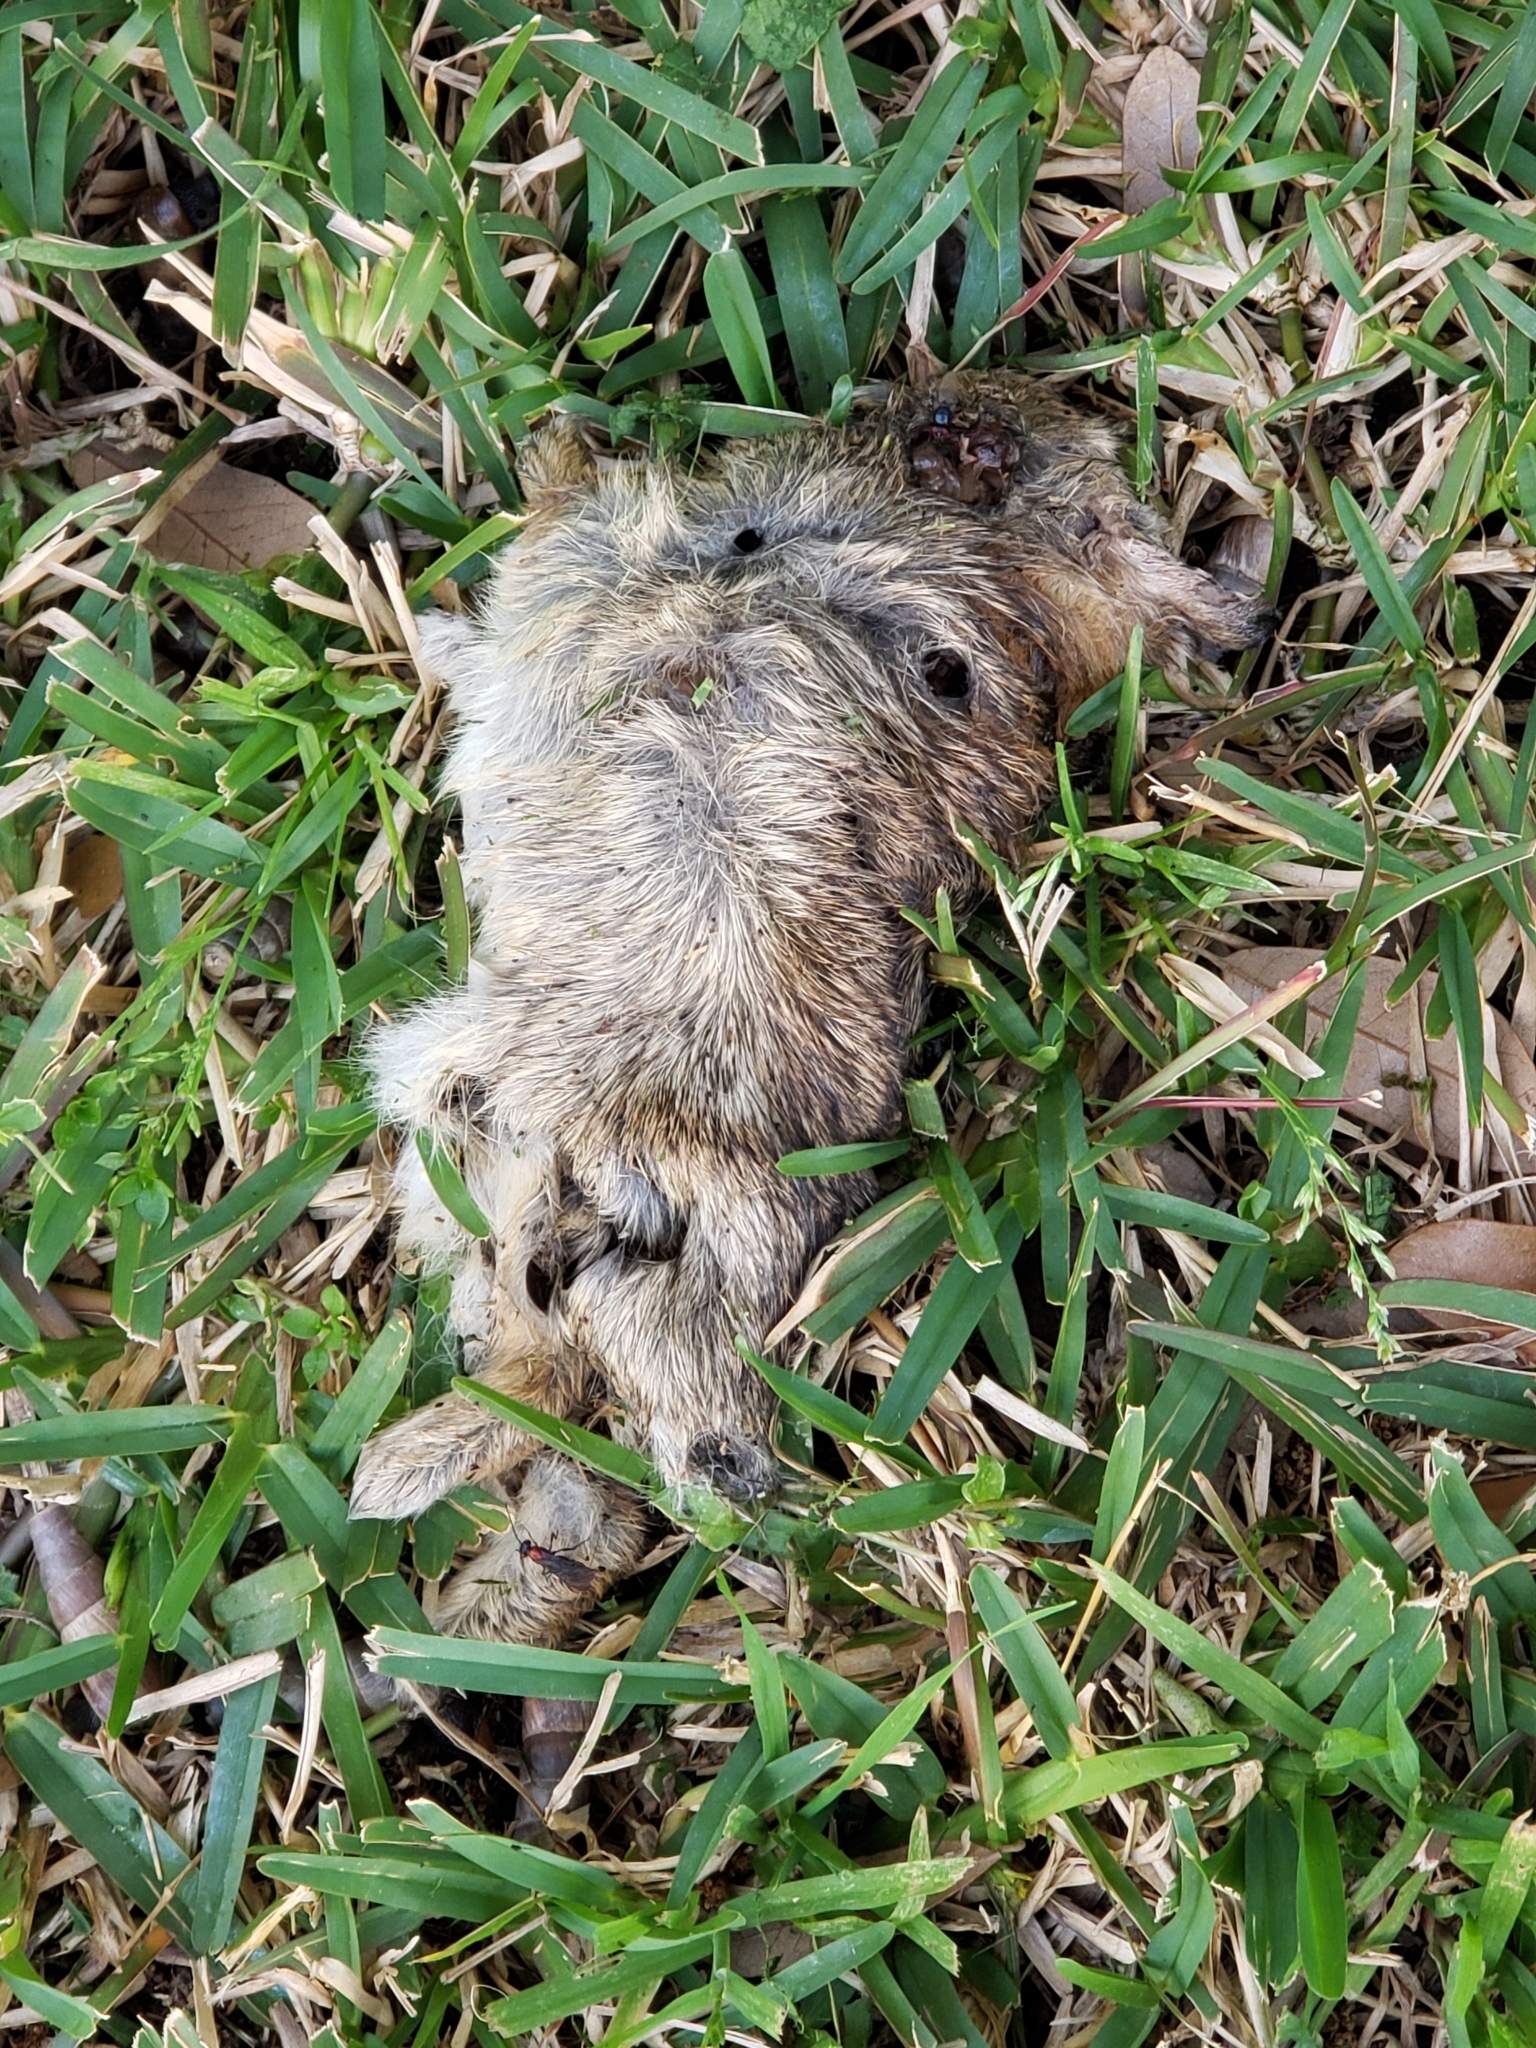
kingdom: Animalia
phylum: Chordata
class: Mammalia
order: Lagomorpha
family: Leporidae
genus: Sylvilagus
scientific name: Sylvilagus floridanus
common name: Eastern cottontail
